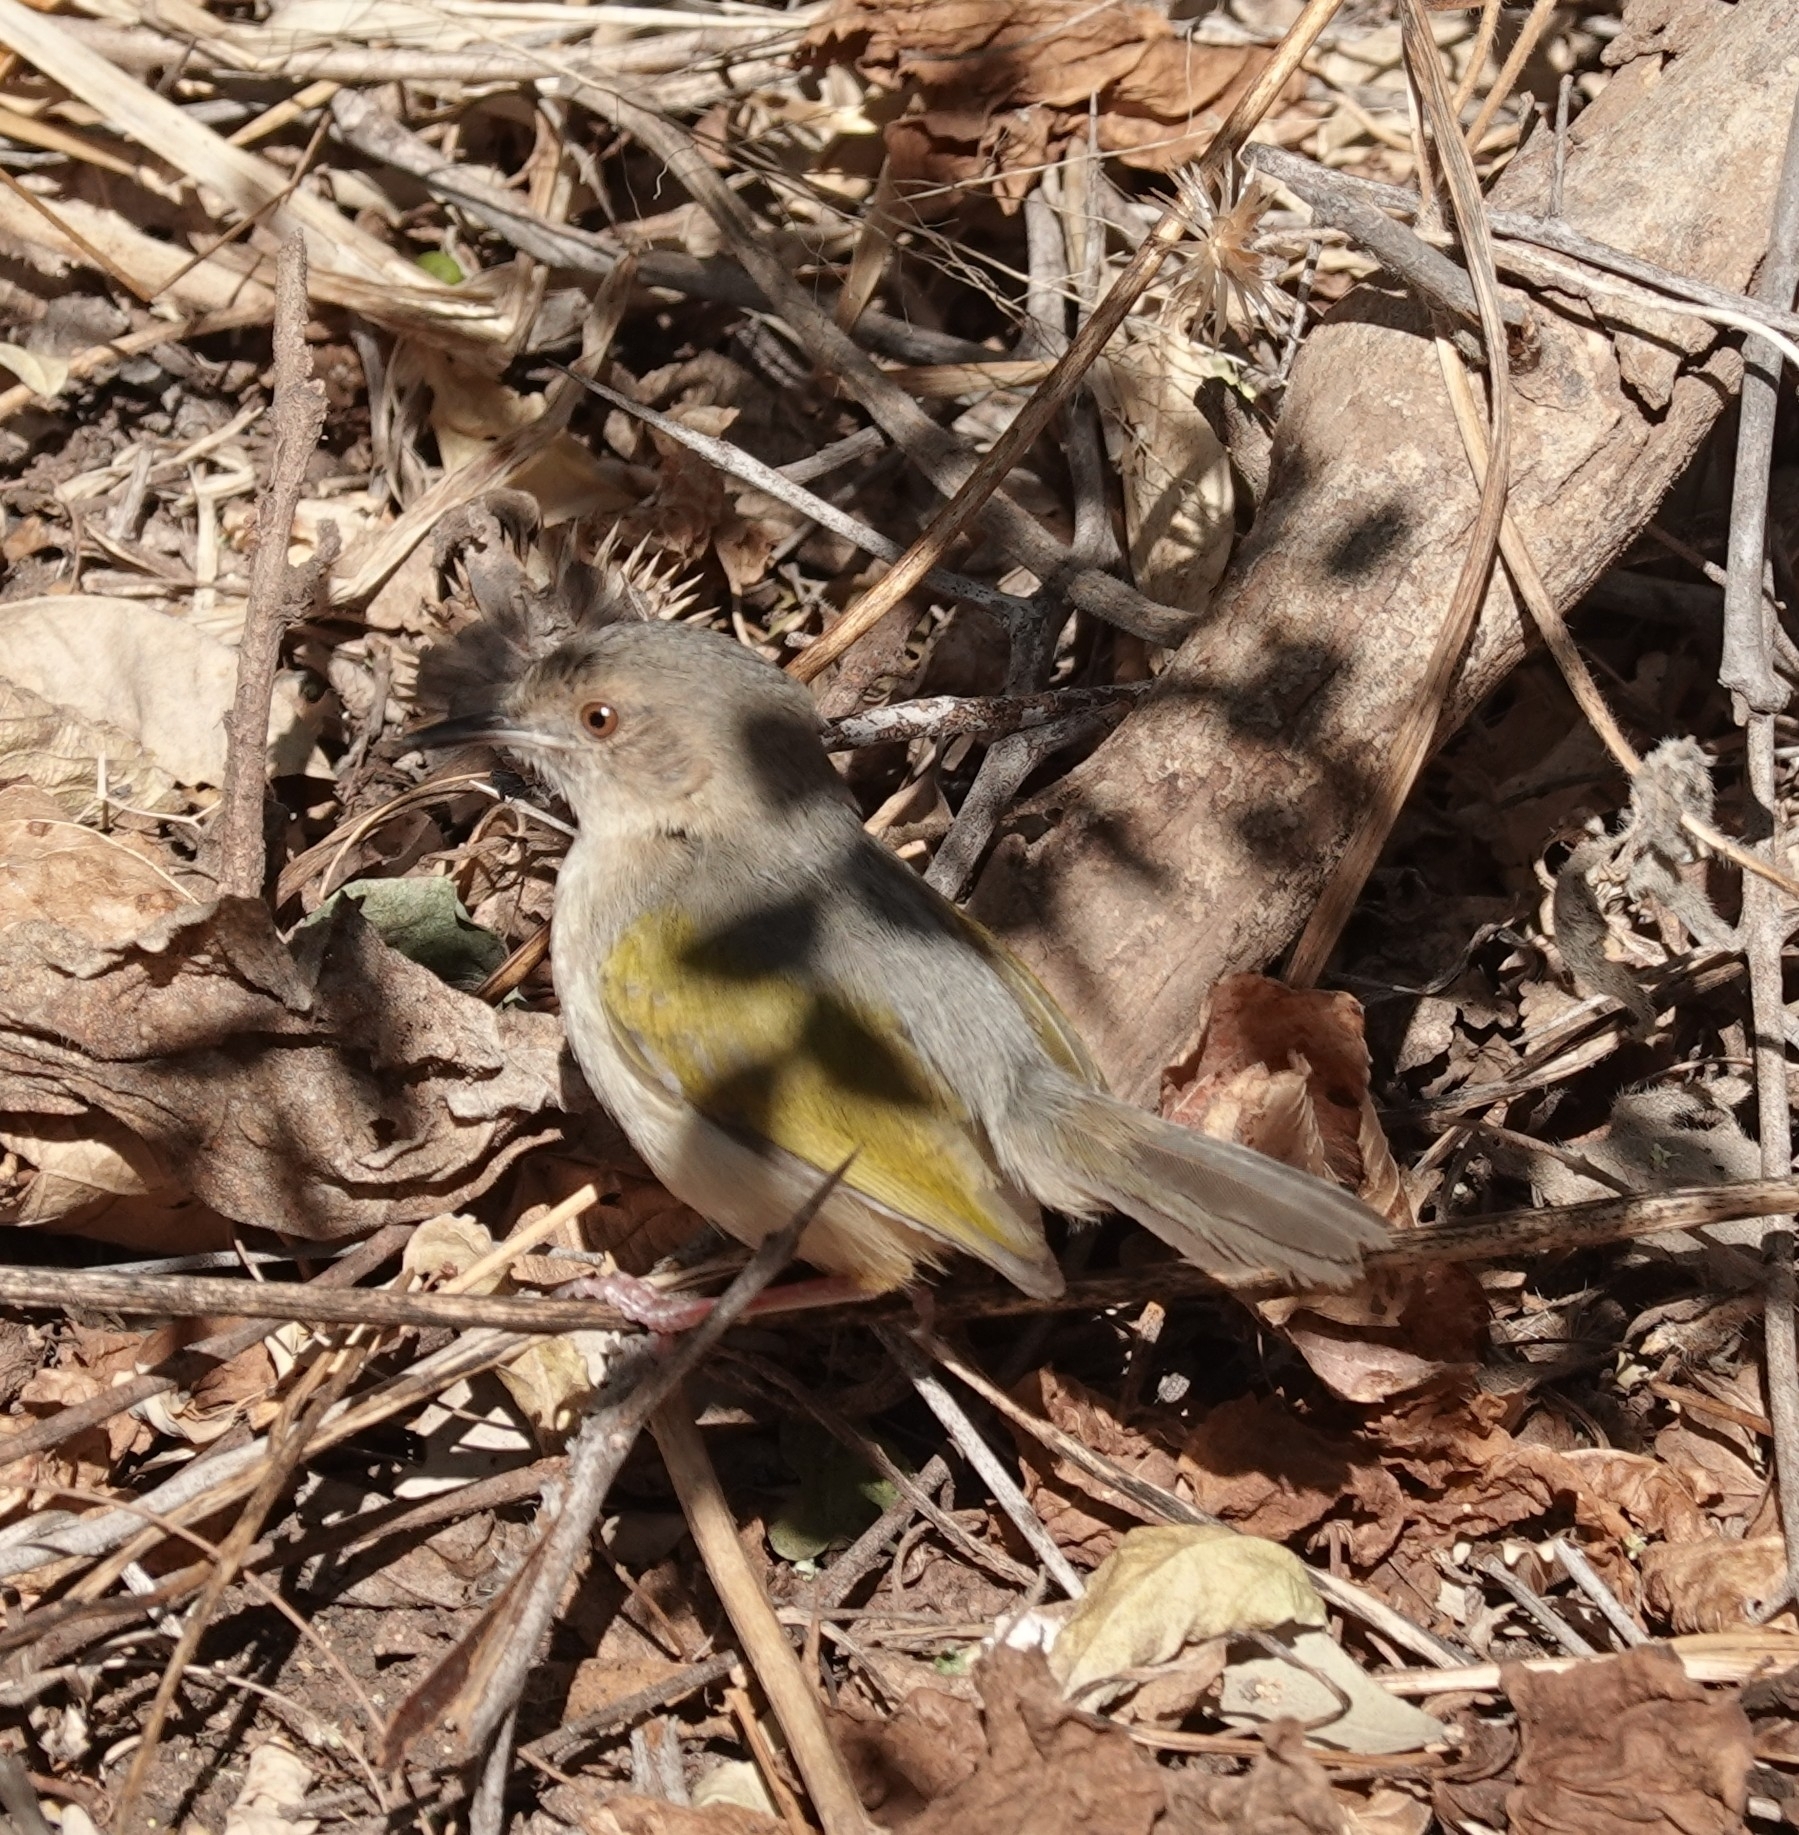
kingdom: Animalia
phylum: Chordata
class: Aves
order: Passeriformes
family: Cisticolidae
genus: Camaroptera
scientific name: Camaroptera brachyura
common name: Green-backed camaroptera
